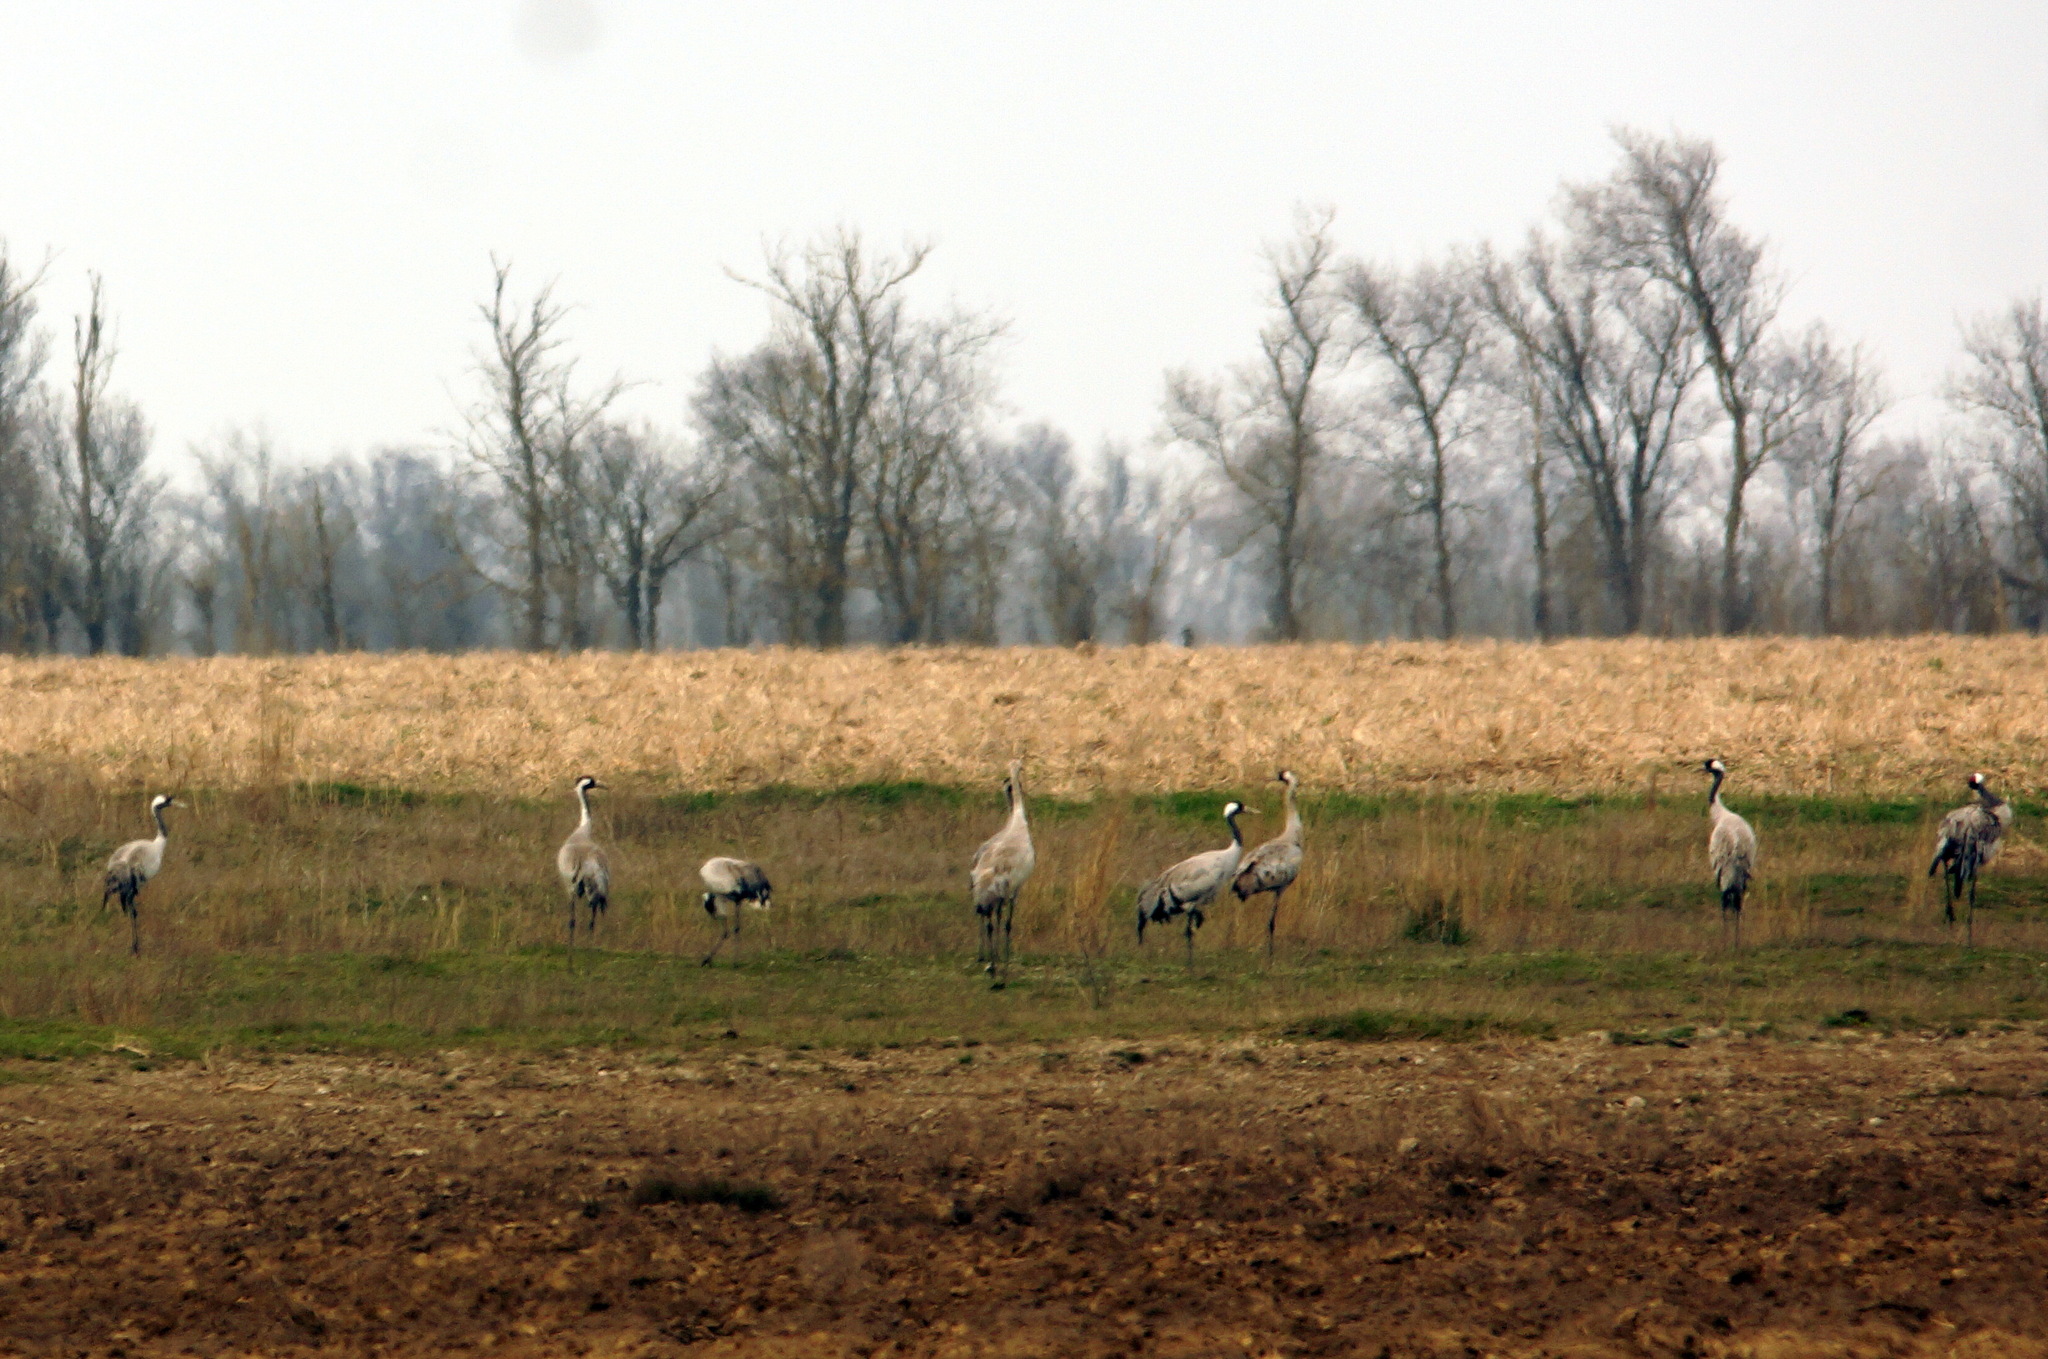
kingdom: Animalia
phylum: Chordata
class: Aves
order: Gruiformes
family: Gruidae
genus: Grus
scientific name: Grus grus
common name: Common crane
